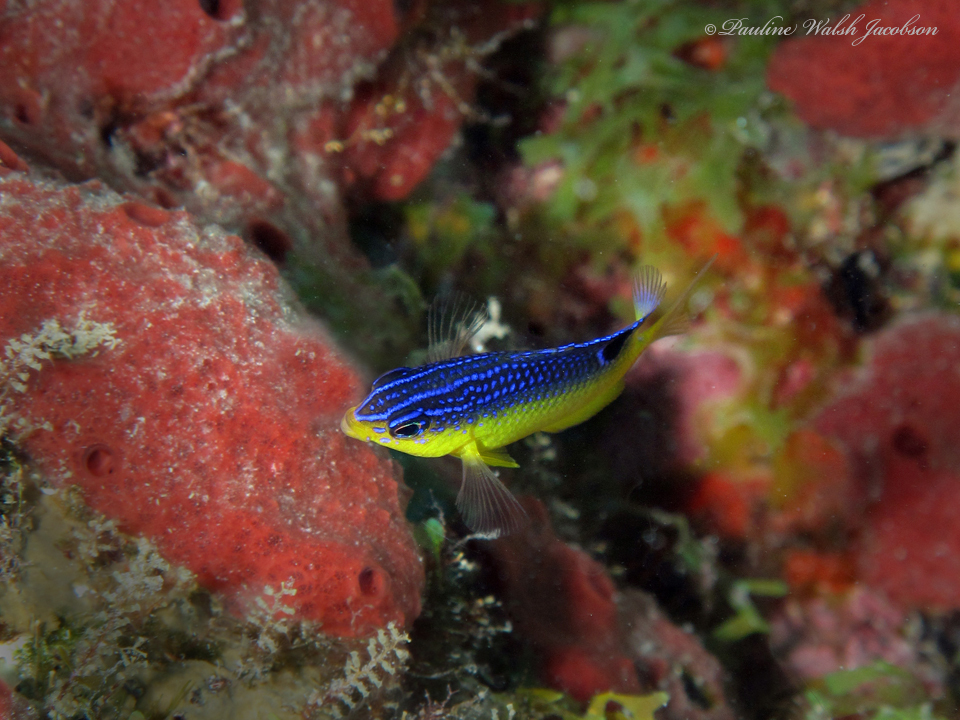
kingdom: Animalia
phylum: Chordata
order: Perciformes
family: Pomacentridae
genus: Stegastes
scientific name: Stegastes xanthurus
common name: Cocoa damselfish
